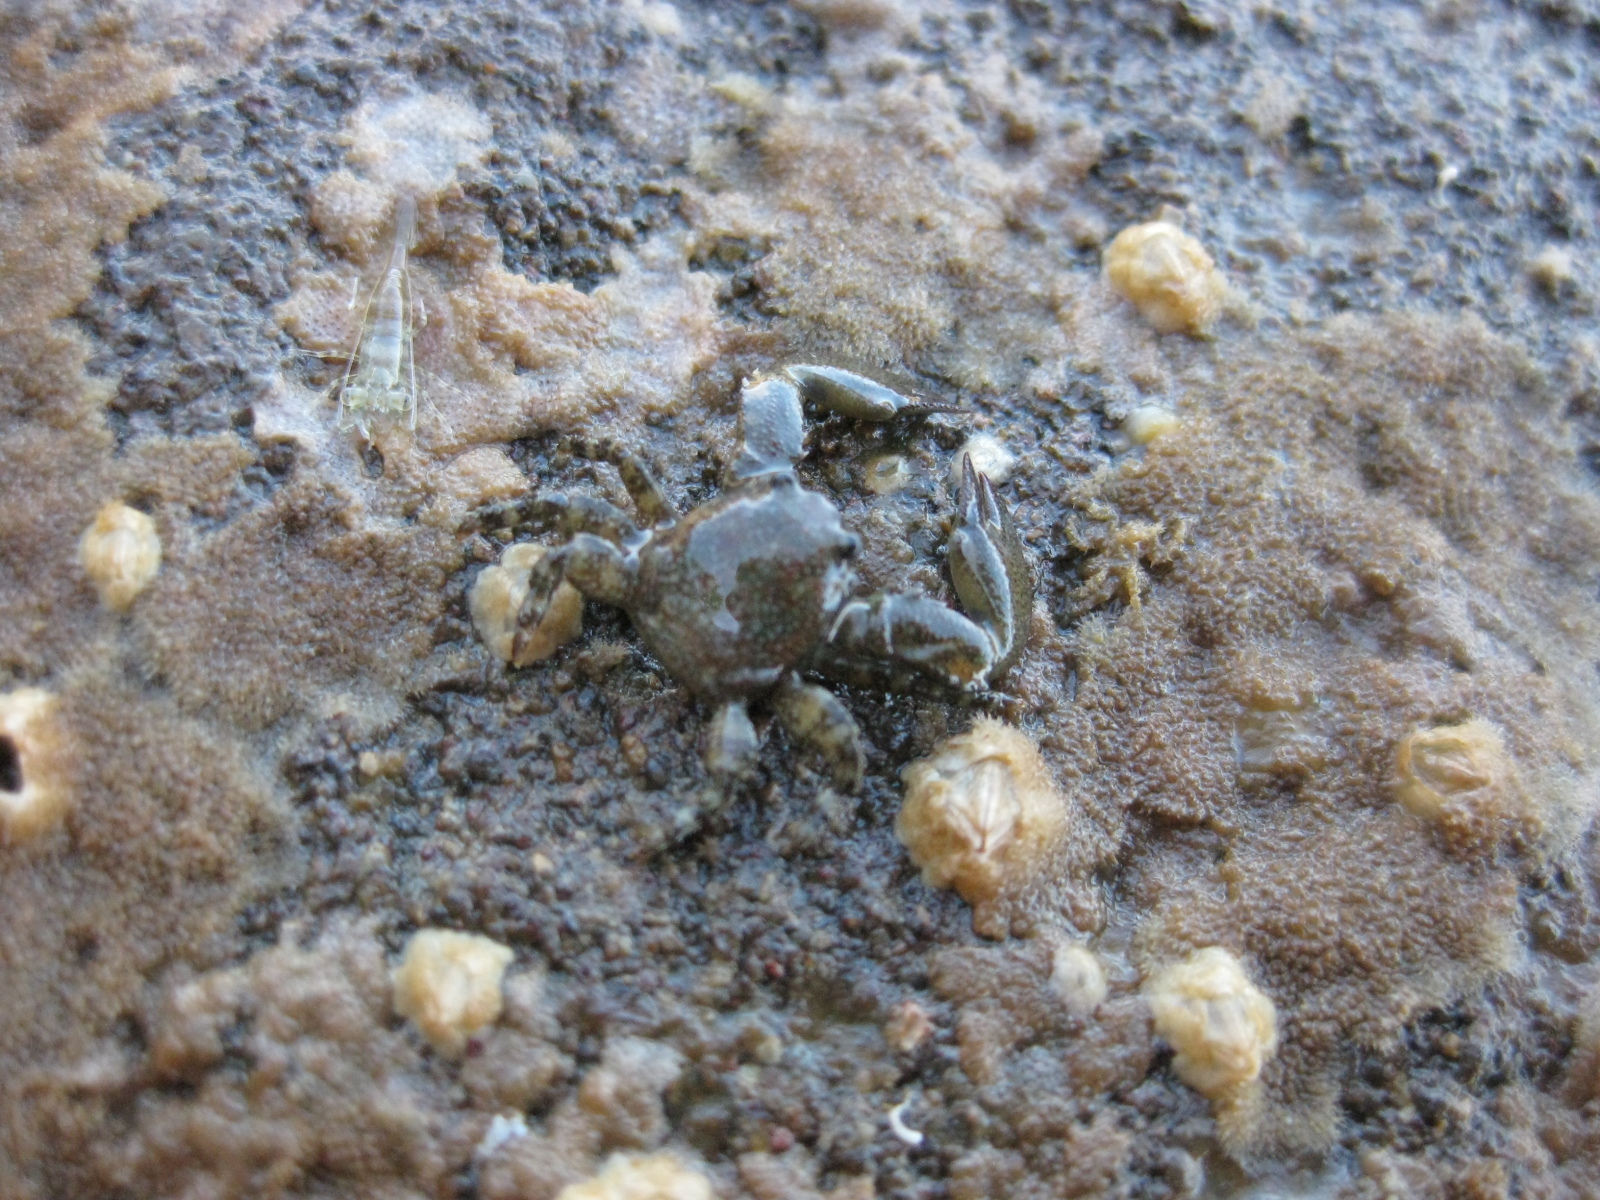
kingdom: Animalia
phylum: Arthropoda
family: Elminiidae
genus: Austrominius
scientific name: Austrominius modestus
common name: Australasian barnacle
